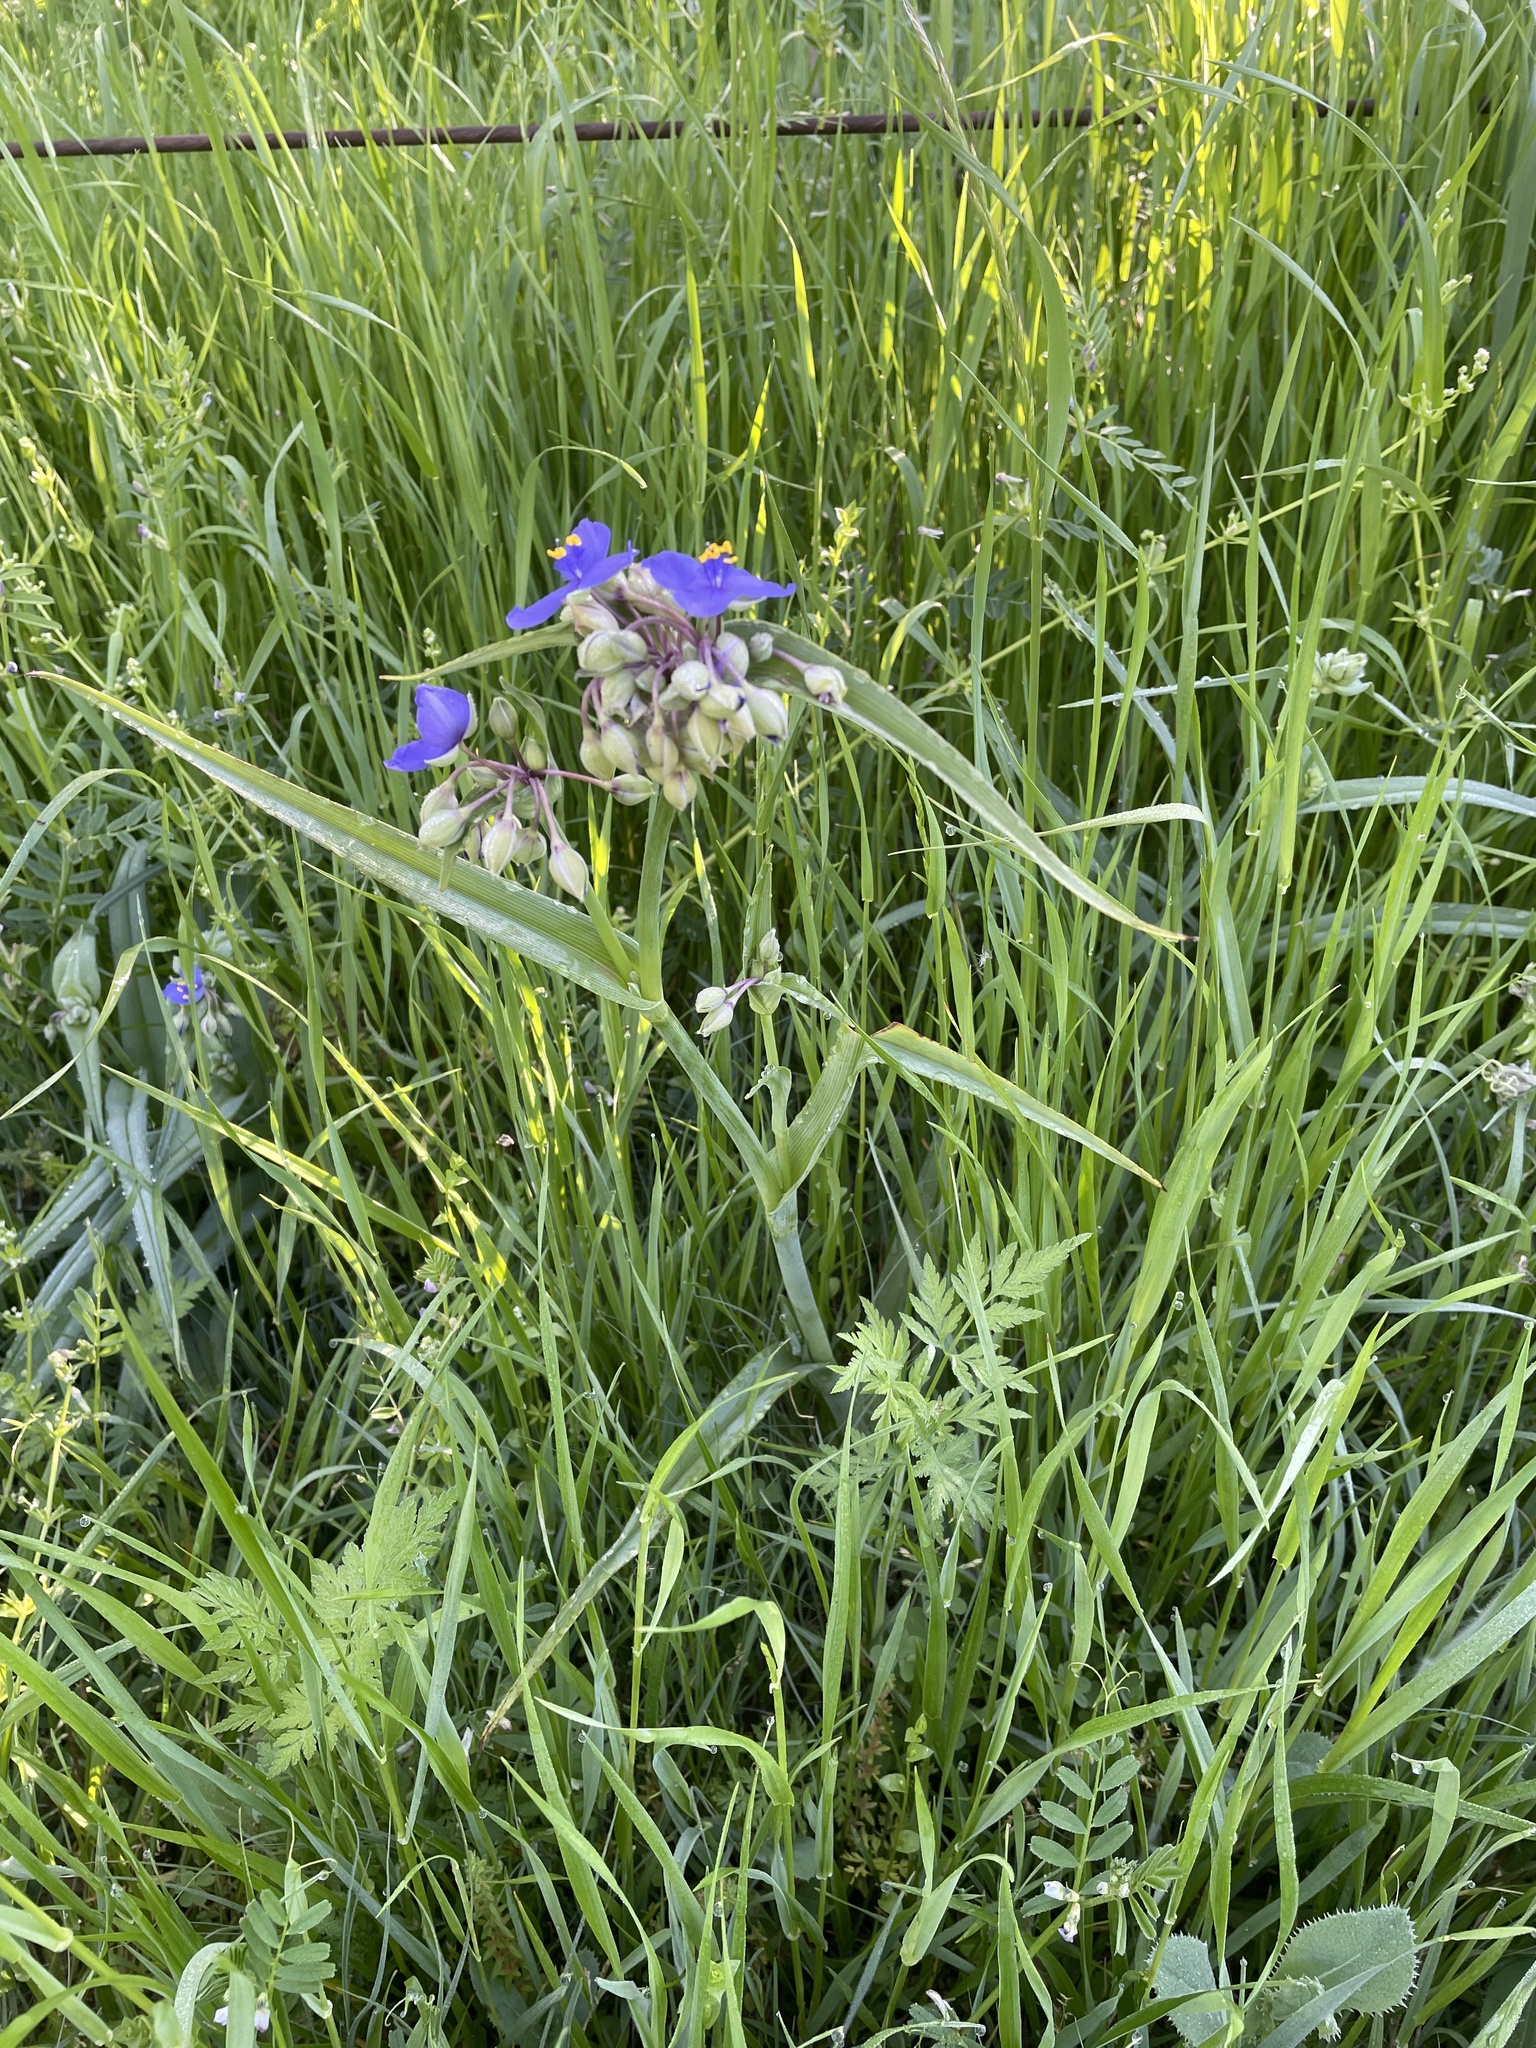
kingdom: Plantae
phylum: Tracheophyta
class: Liliopsida
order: Commelinales
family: Commelinaceae
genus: Tradescantia
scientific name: Tradescantia ohiensis
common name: Ohio spiderwort
